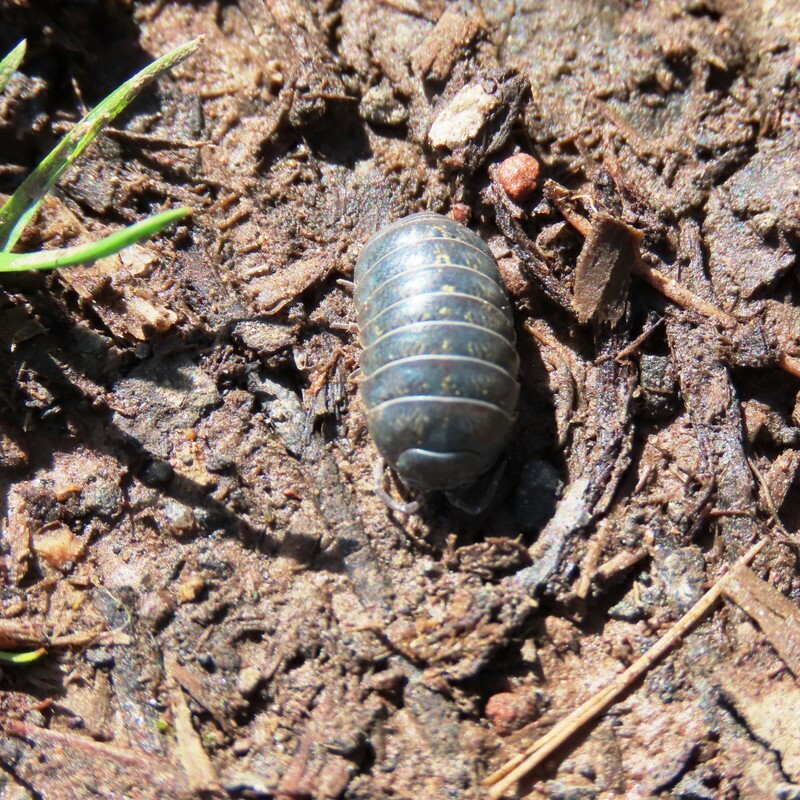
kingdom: Animalia
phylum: Arthropoda
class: Malacostraca
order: Isopoda
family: Armadillidiidae
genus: Armadillidium
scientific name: Armadillidium vulgare
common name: Common pill woodlouse
